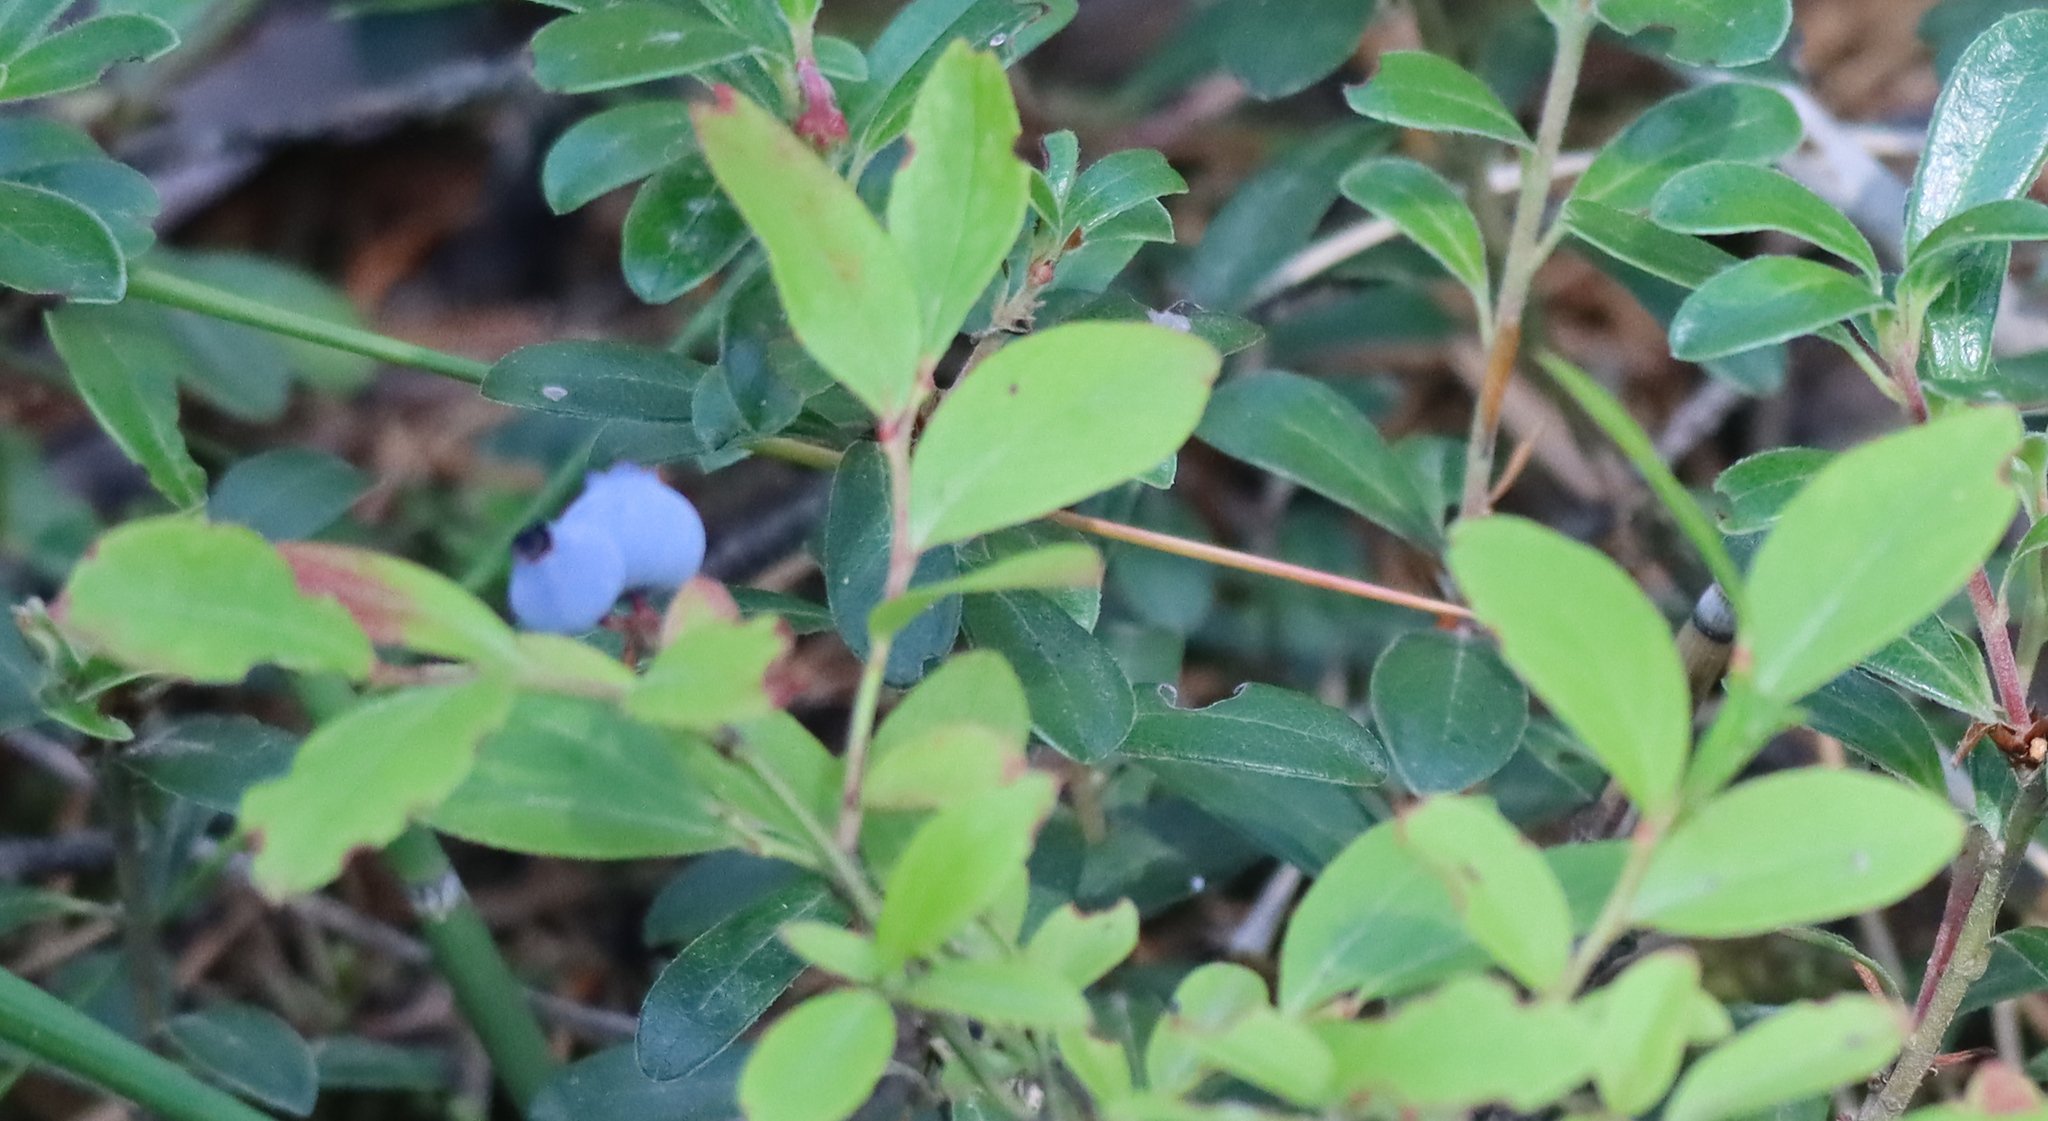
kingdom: Plantae
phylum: Tracheophyta
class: Magnoliopsida
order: Ericales
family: Ericaceae
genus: Vaccinium
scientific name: Vaccinium angustifolium
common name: Early lowbush blueberry
